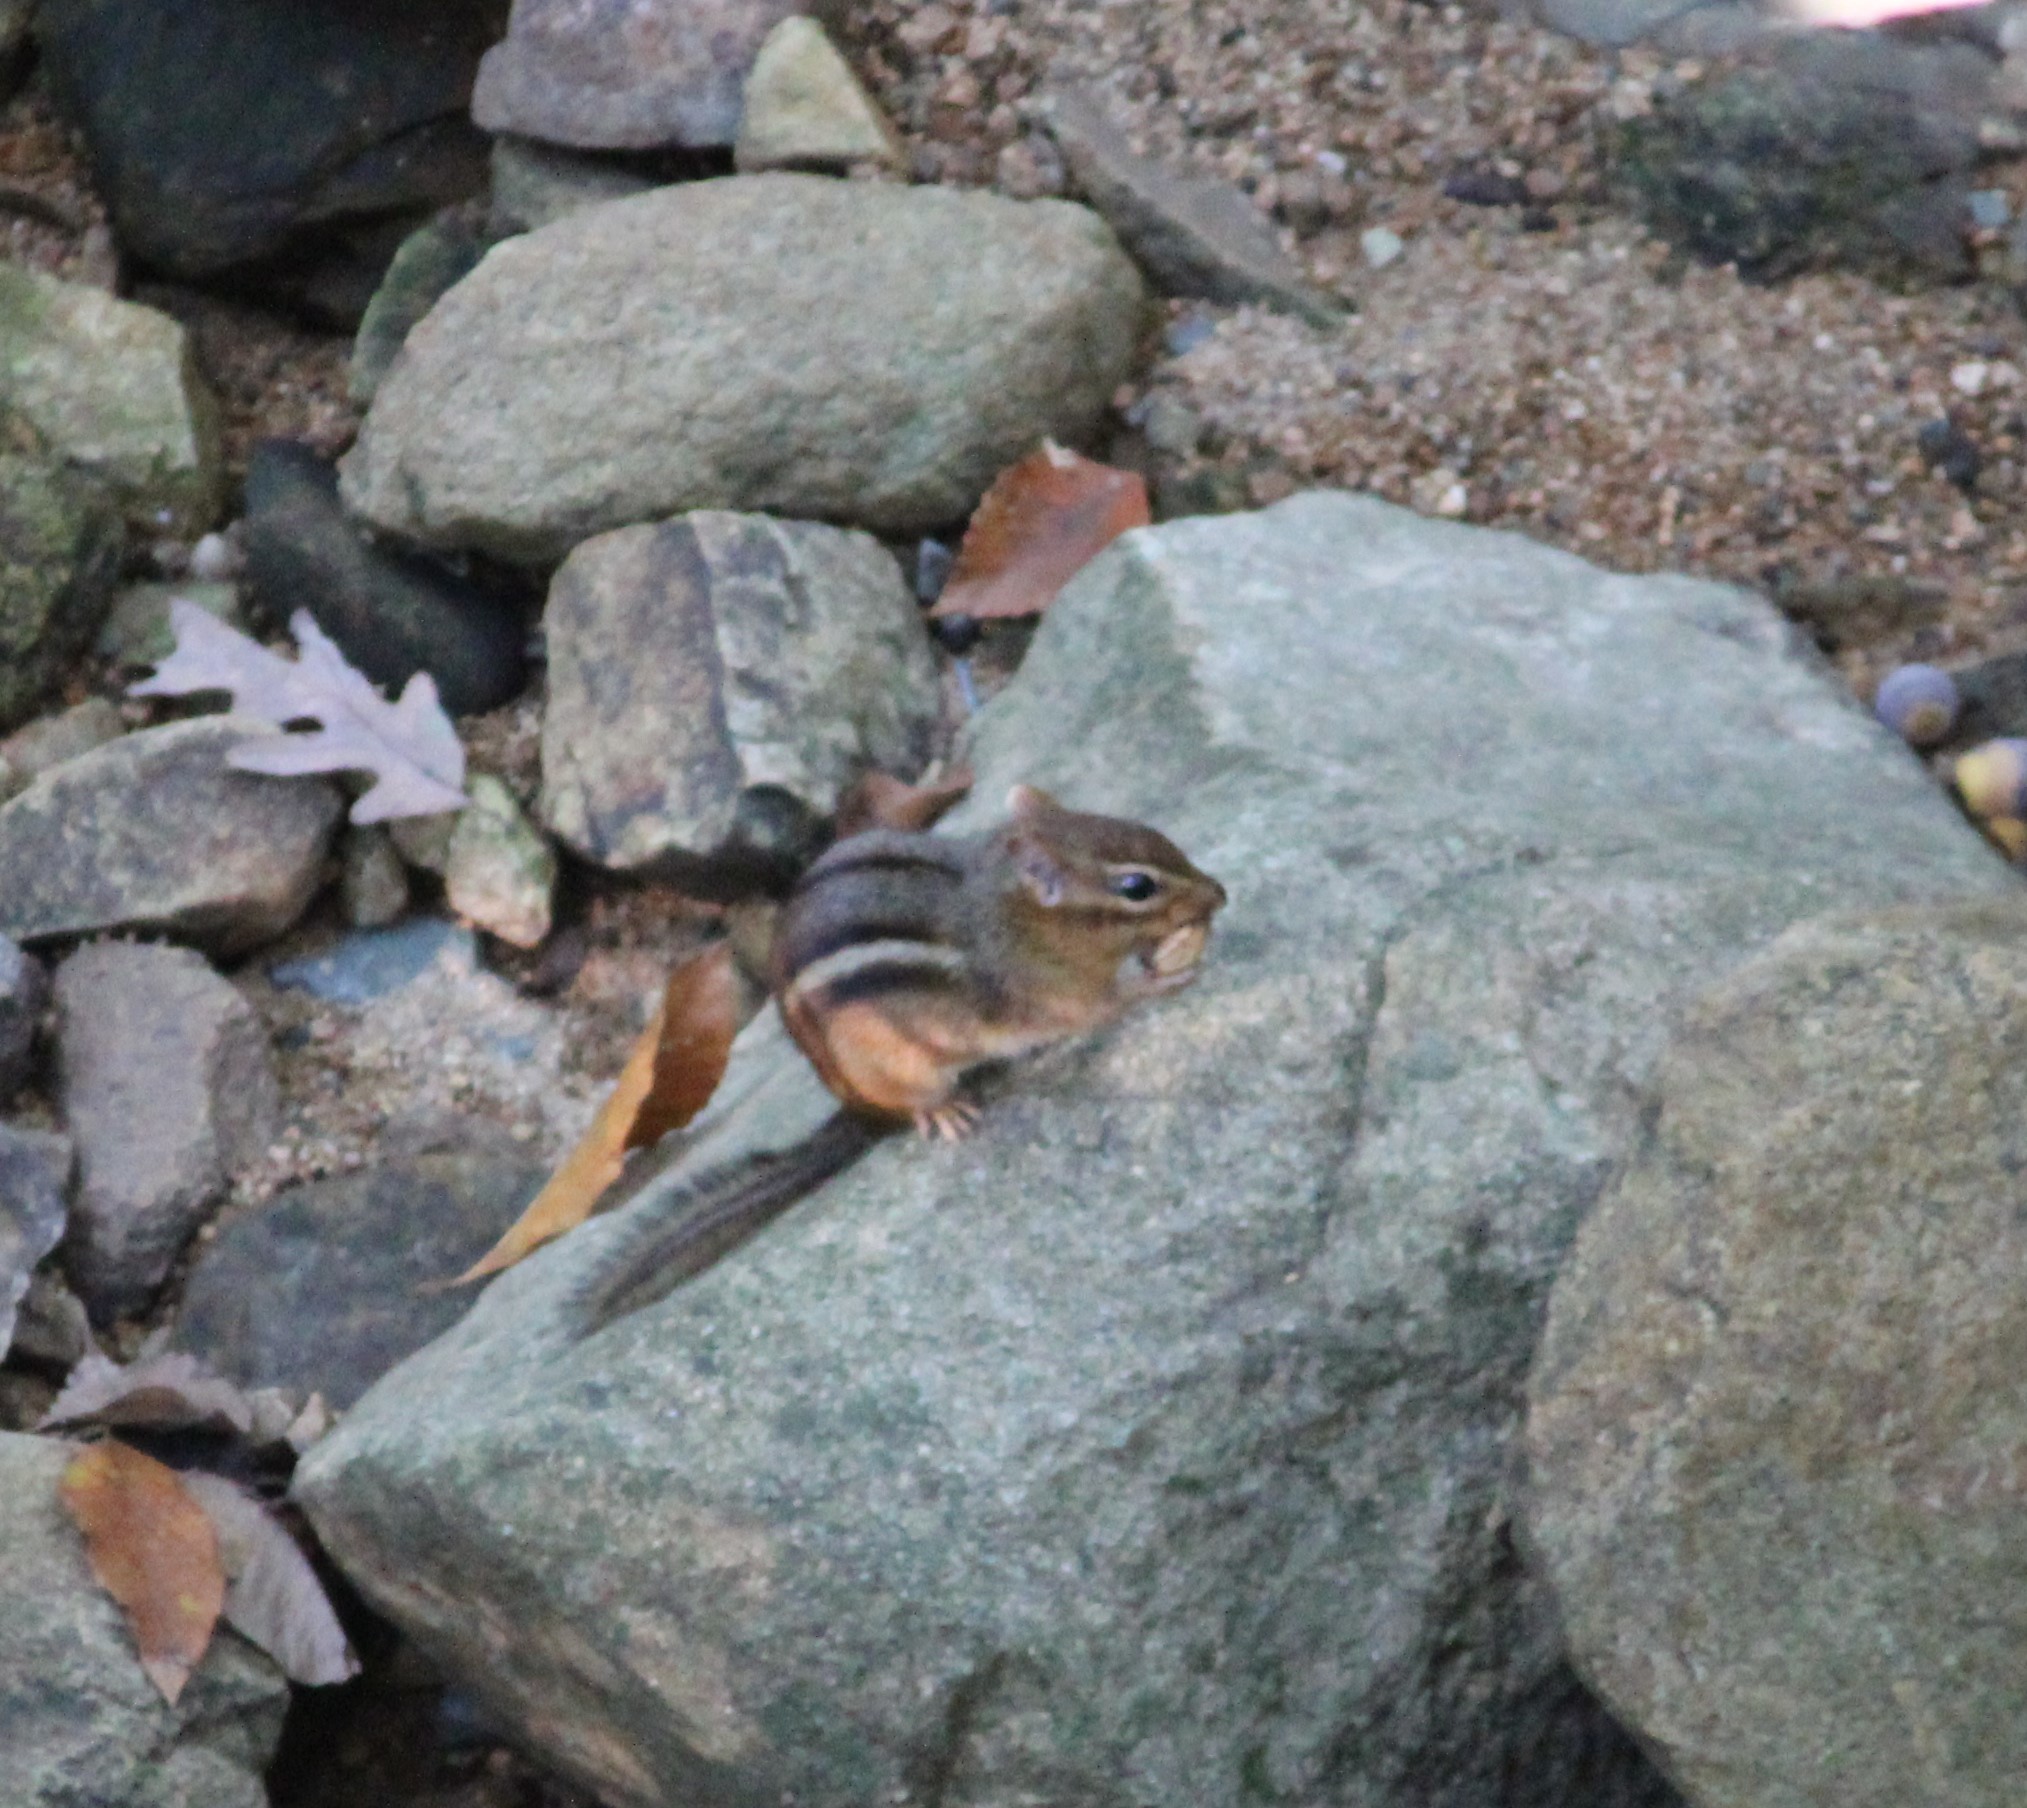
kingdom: Animalia
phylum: Chordata
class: Mammalia
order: Rodentia
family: Sciuridae
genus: Tamias
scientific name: Tamias striatus
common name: Eastern chipmunk
